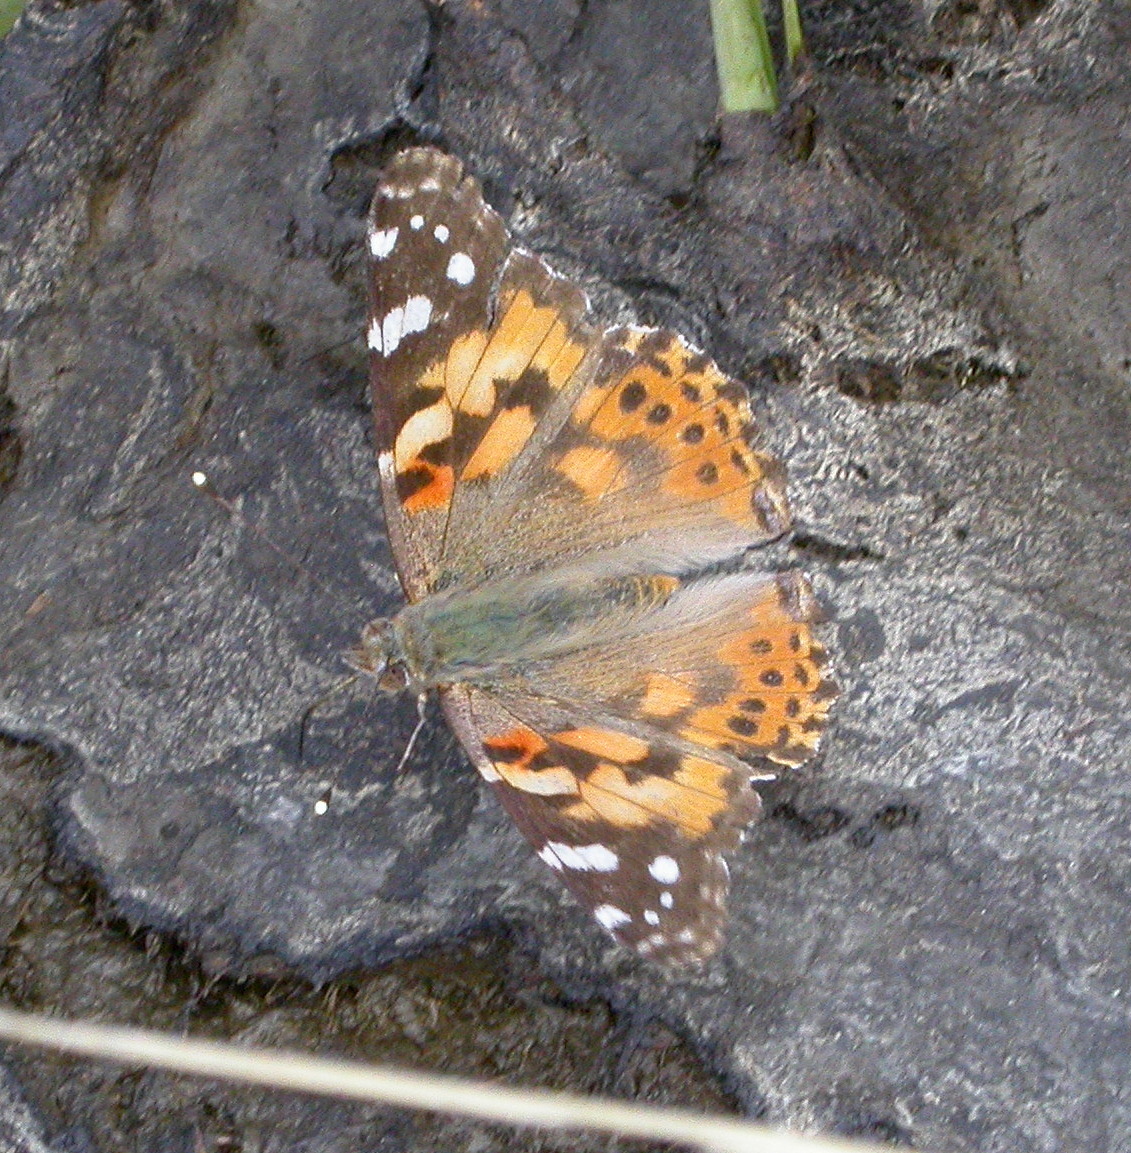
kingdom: Animalia
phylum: Arthropoda
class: Insecta
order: Lepidoptera
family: Nymphalidae
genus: Vanessa
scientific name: Vanessa cardui
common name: Painted lady
